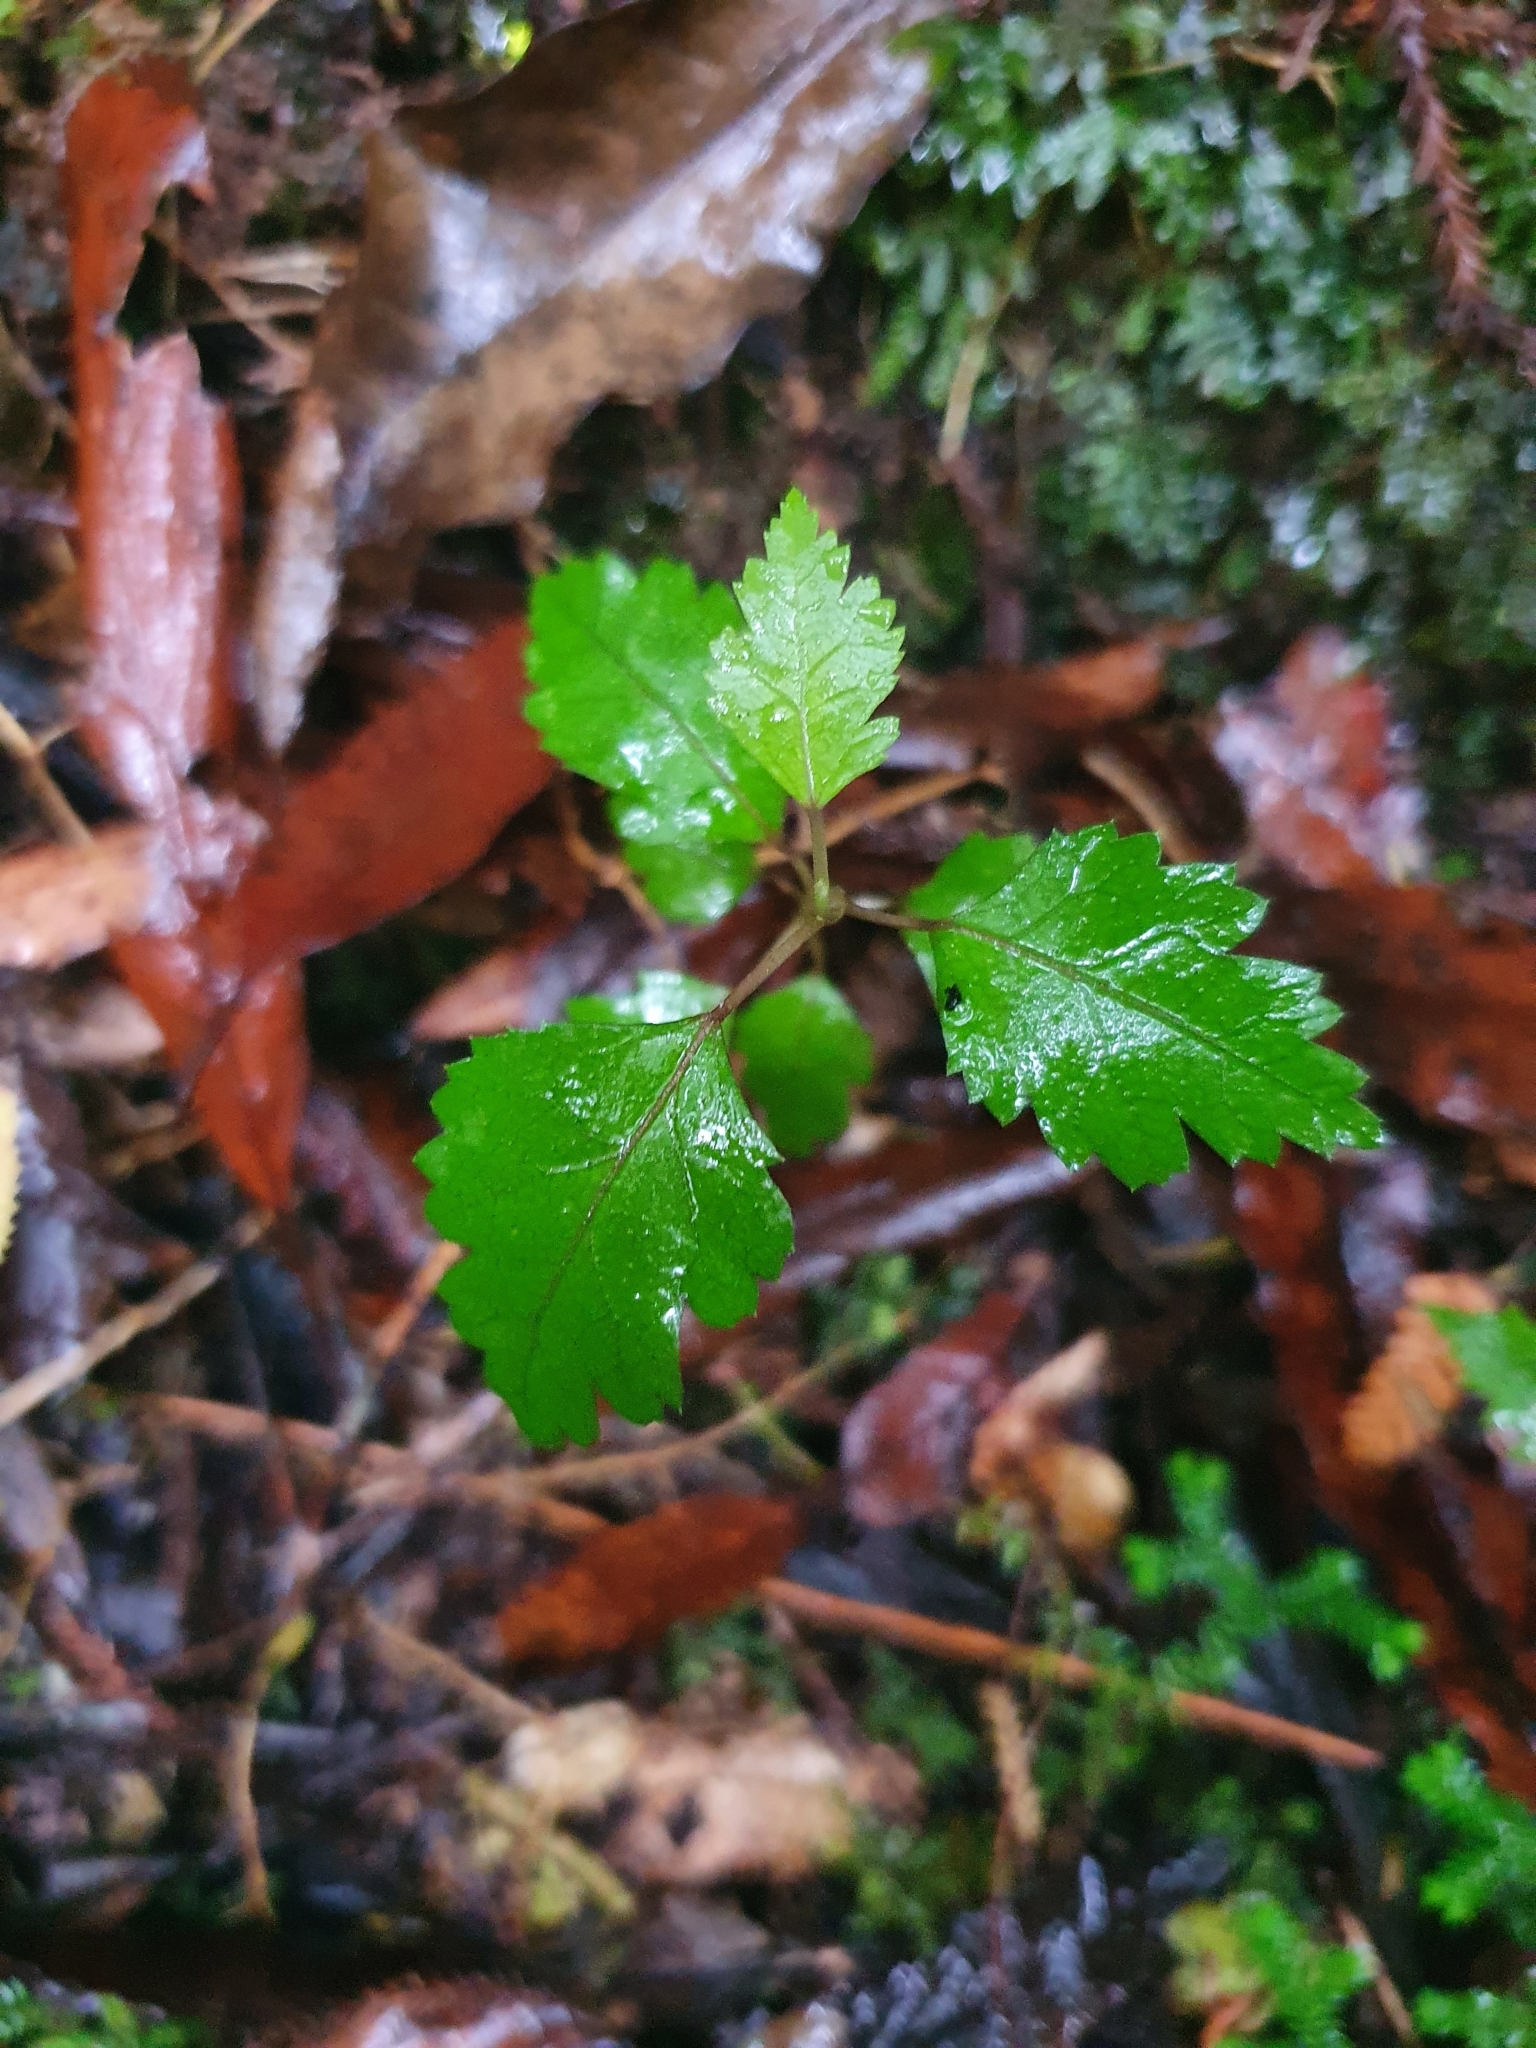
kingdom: Plantae
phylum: Tracheophyta
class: Magnoliopsida
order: Malvales
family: Malvaceae
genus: Hoheria
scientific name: Hoheria sexstylosa
